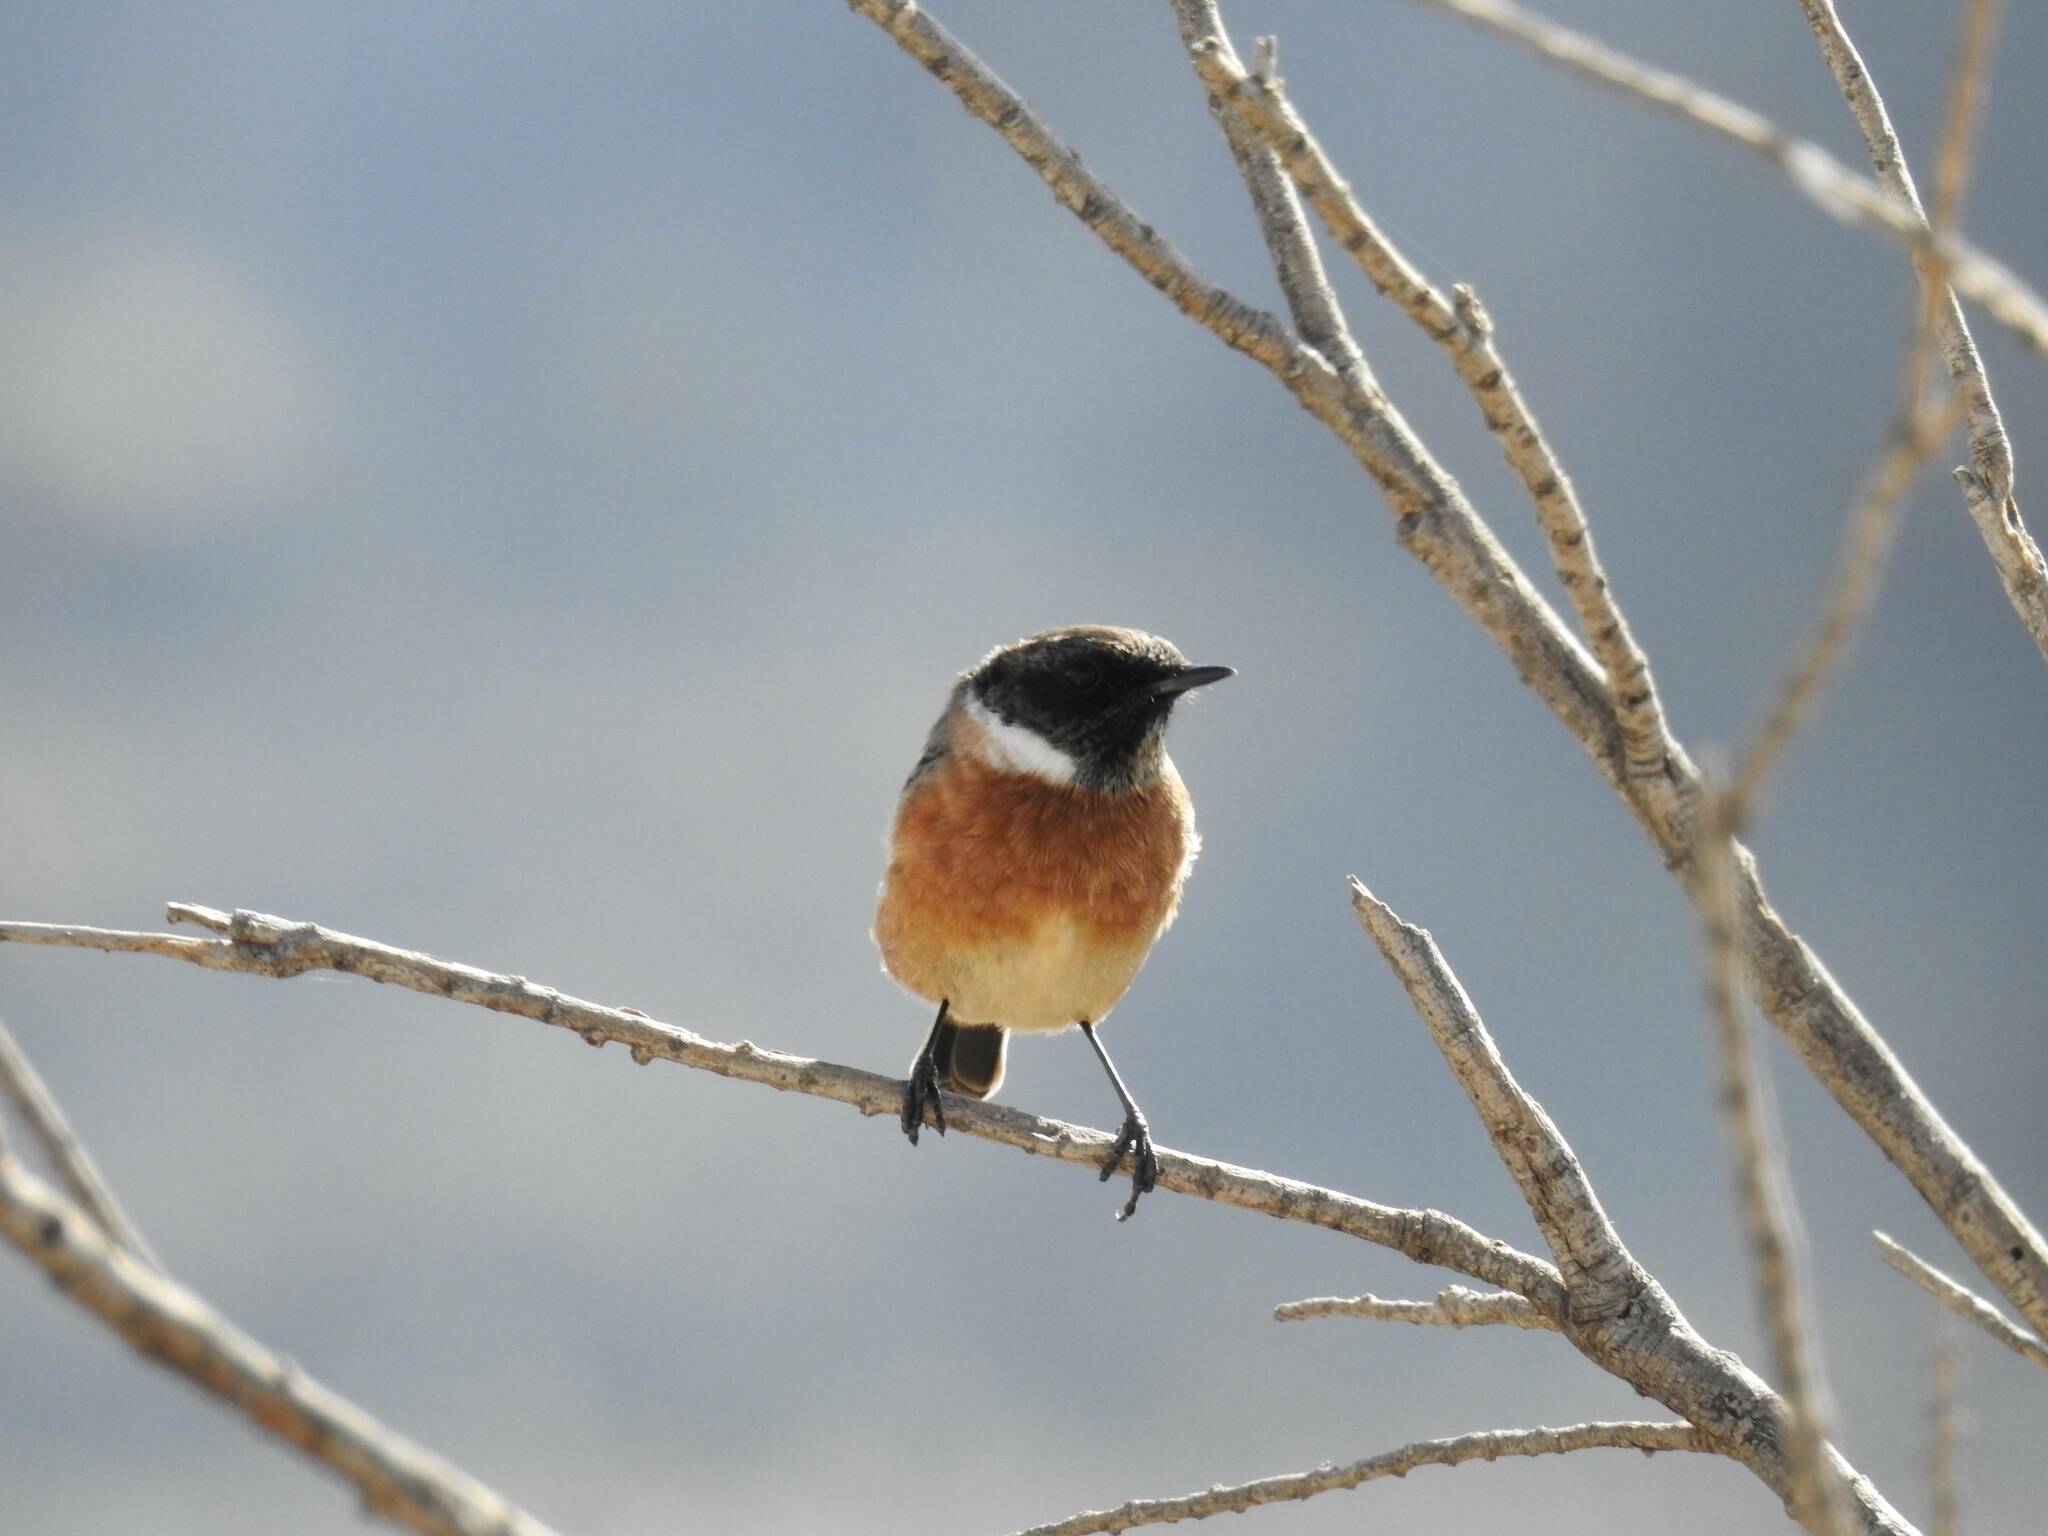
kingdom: Animalia
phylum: Chordata
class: Aves
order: Passeriformes
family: Muscicapidae
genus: Saxicola
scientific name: Saxicola rubicola
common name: European stonechat
